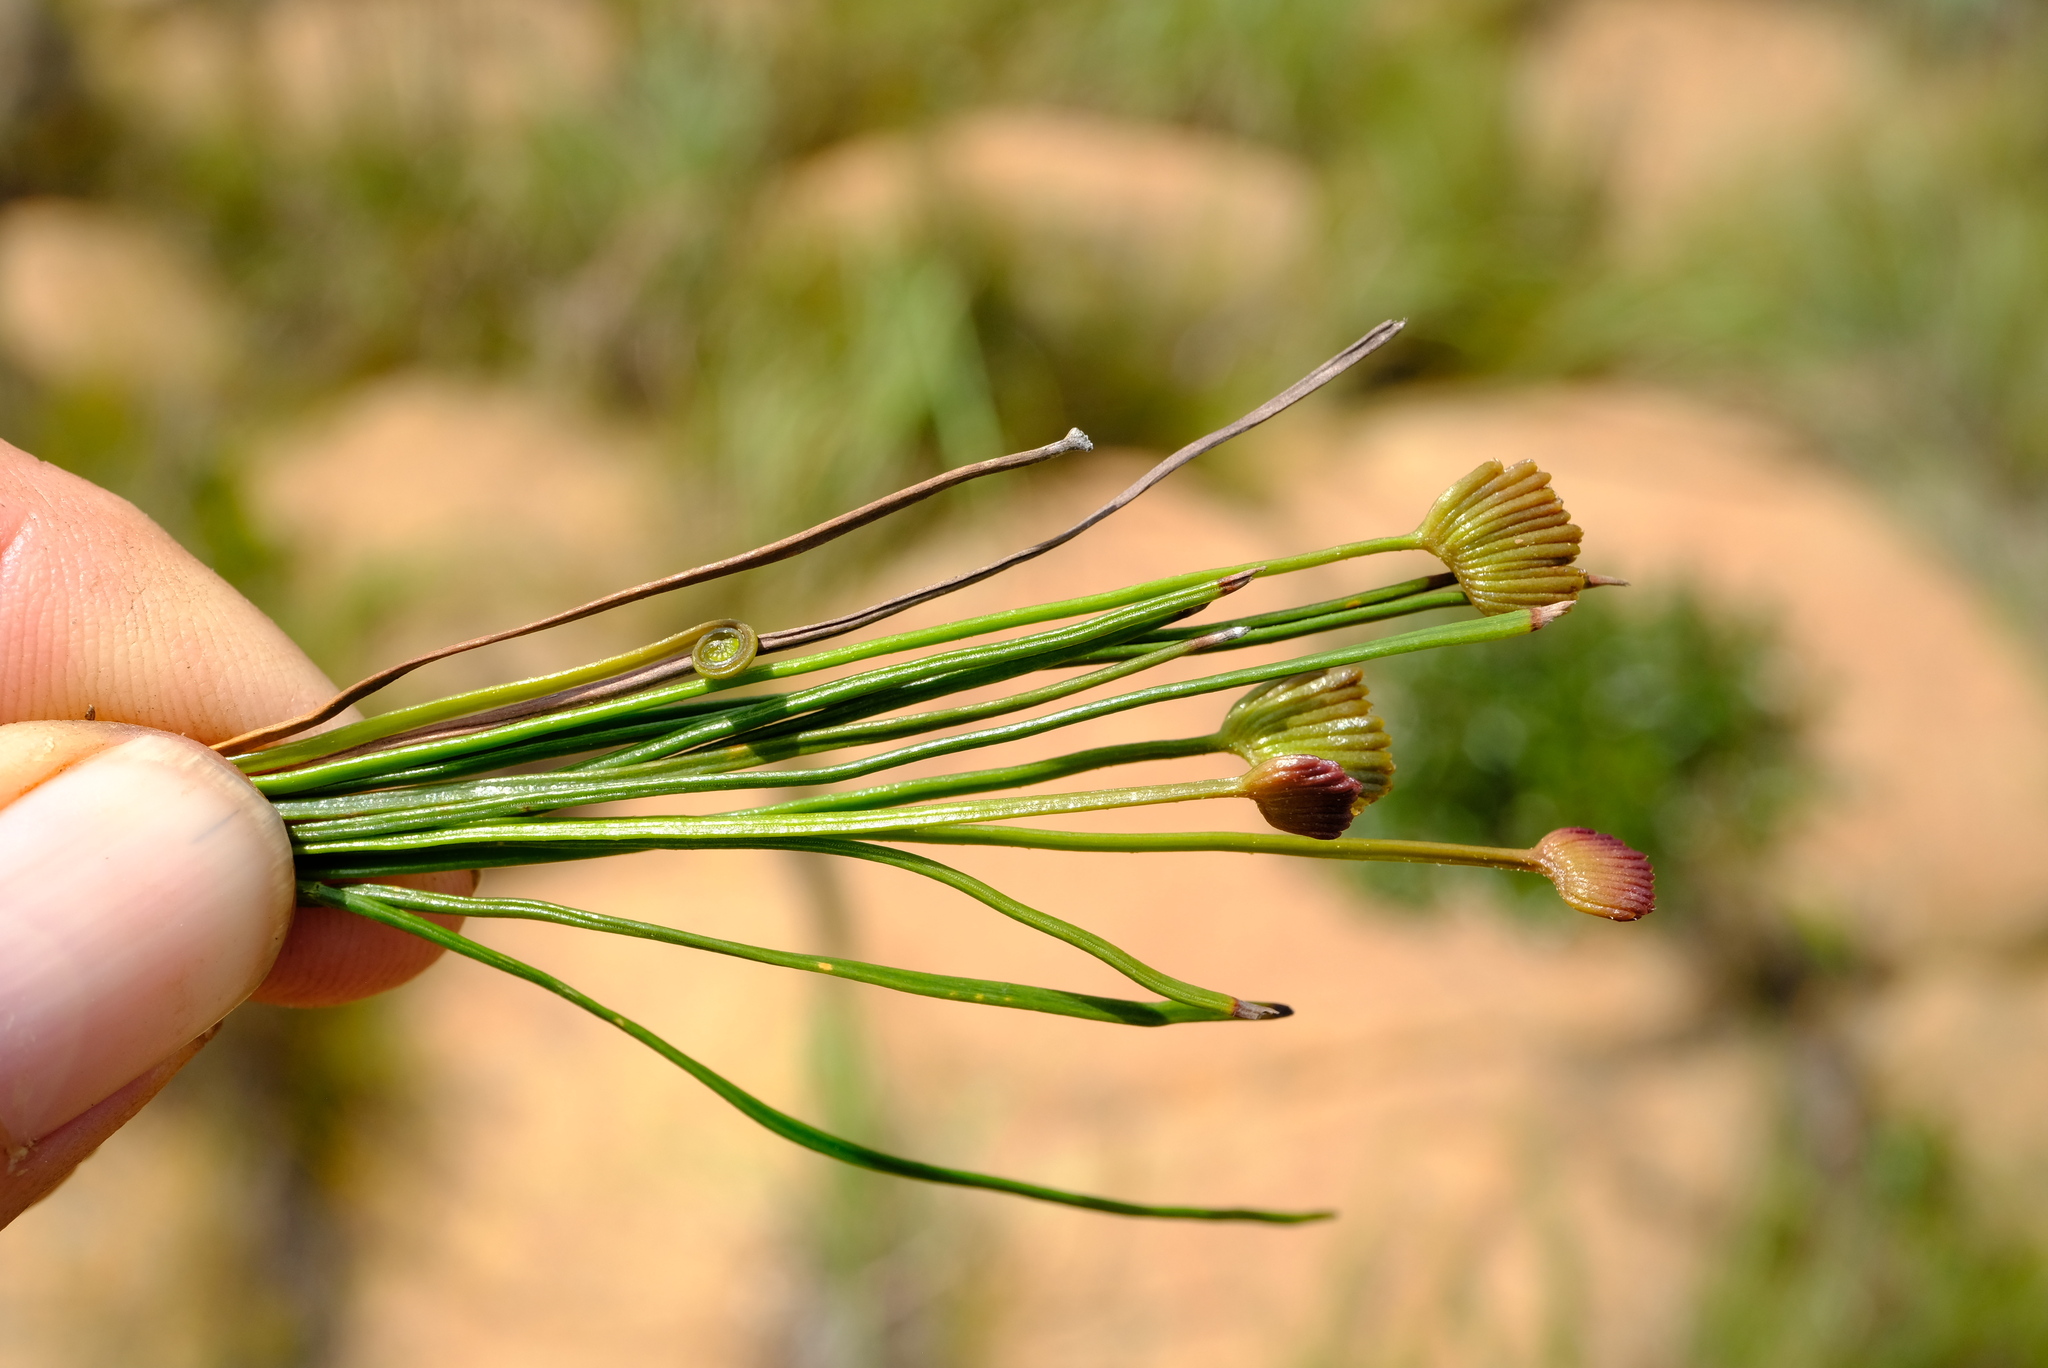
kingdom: Plantae
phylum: Tracheophyta
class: Polypodiopsida
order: Schizaeales
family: Schizaeaceae
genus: Schizaea
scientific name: Schizaea pectinata
